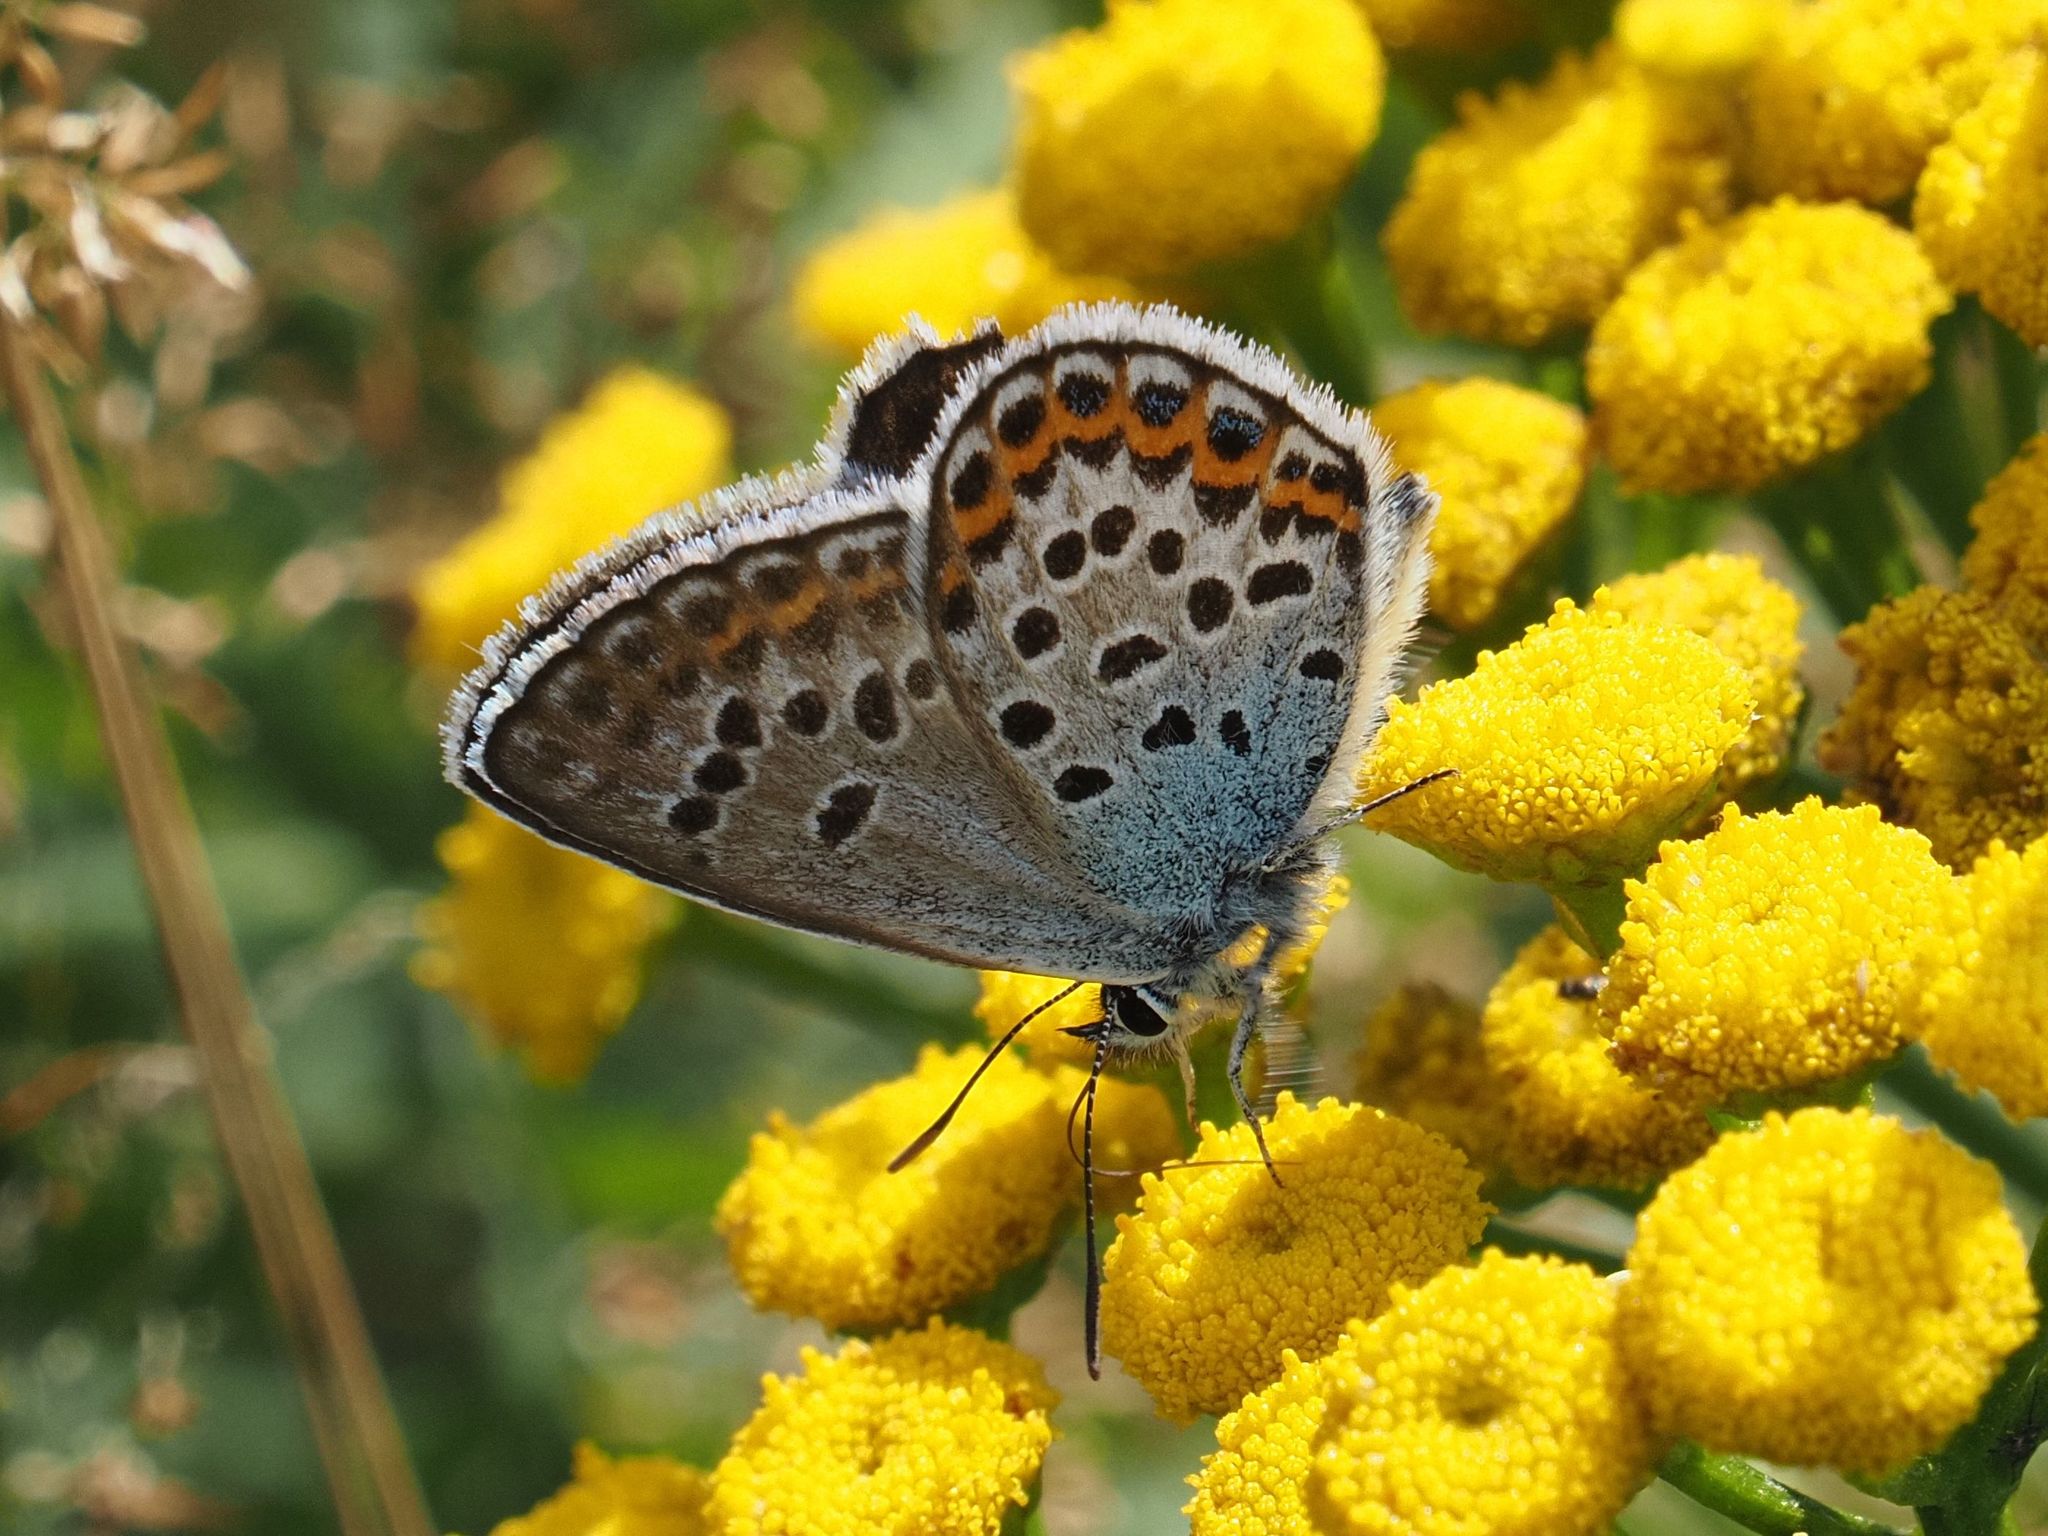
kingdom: Animalia
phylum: Arthropoda
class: Insecta
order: Lepidoptera
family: Lycaenidae
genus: Plebejus
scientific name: Plebejus argus
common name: Silver-studded blue
